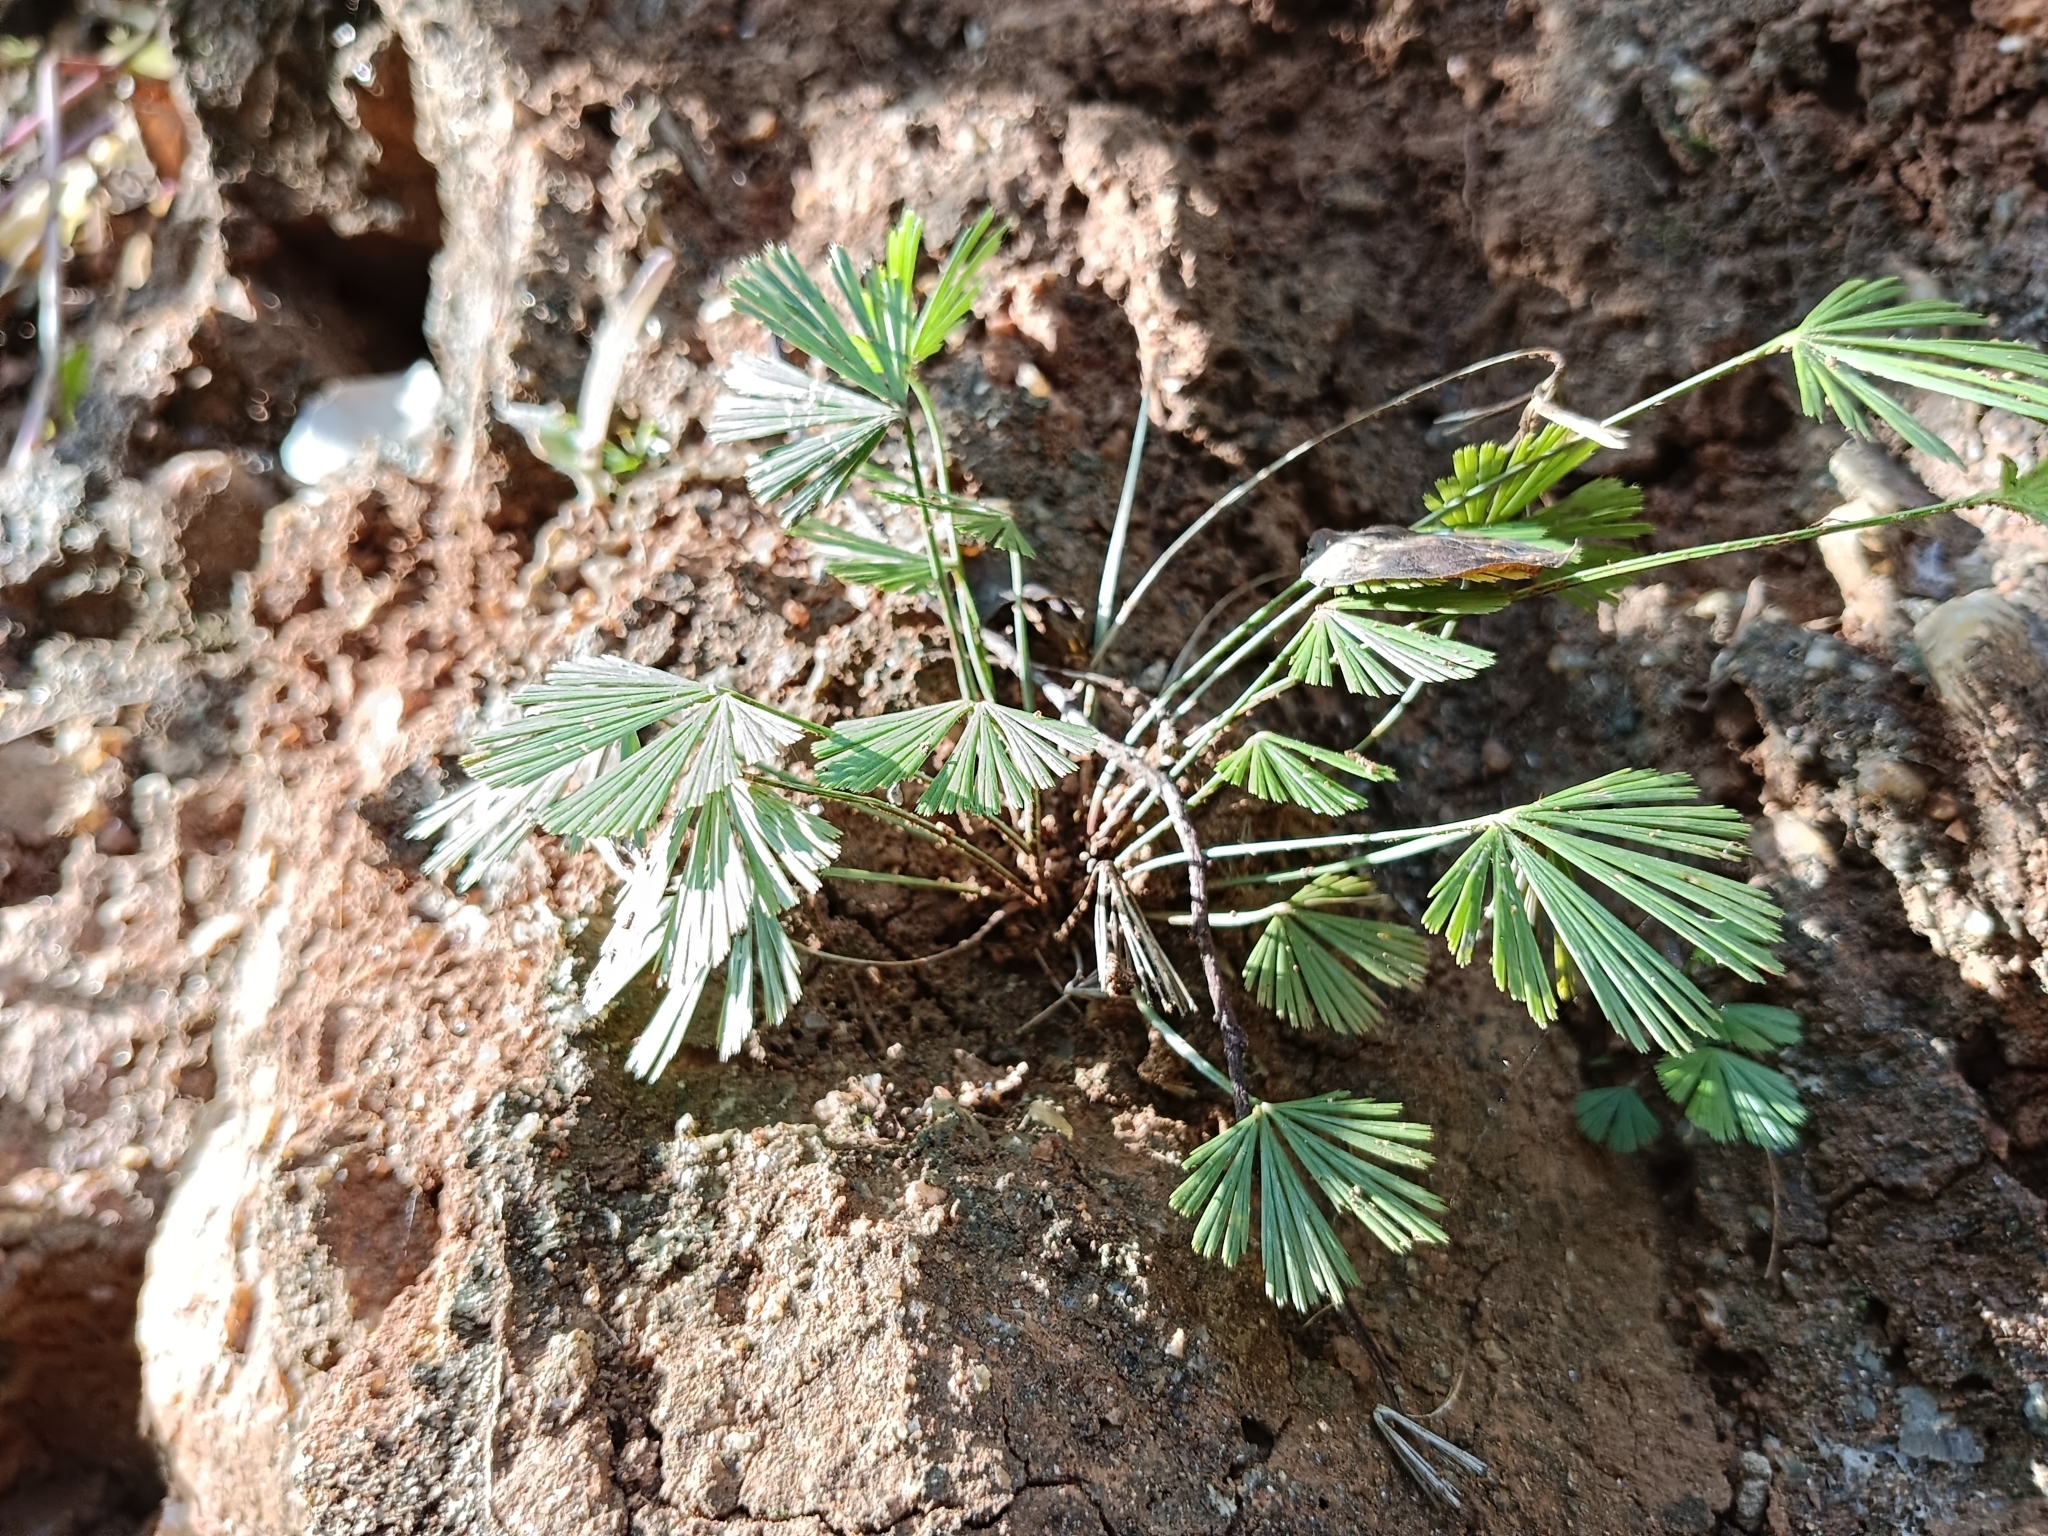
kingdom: Plantae
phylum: Tracheophyta
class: Polypodiopsida
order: Polypodiales
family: Pteridaceae
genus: Actiniopteris
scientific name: Actiniopteris radiata
